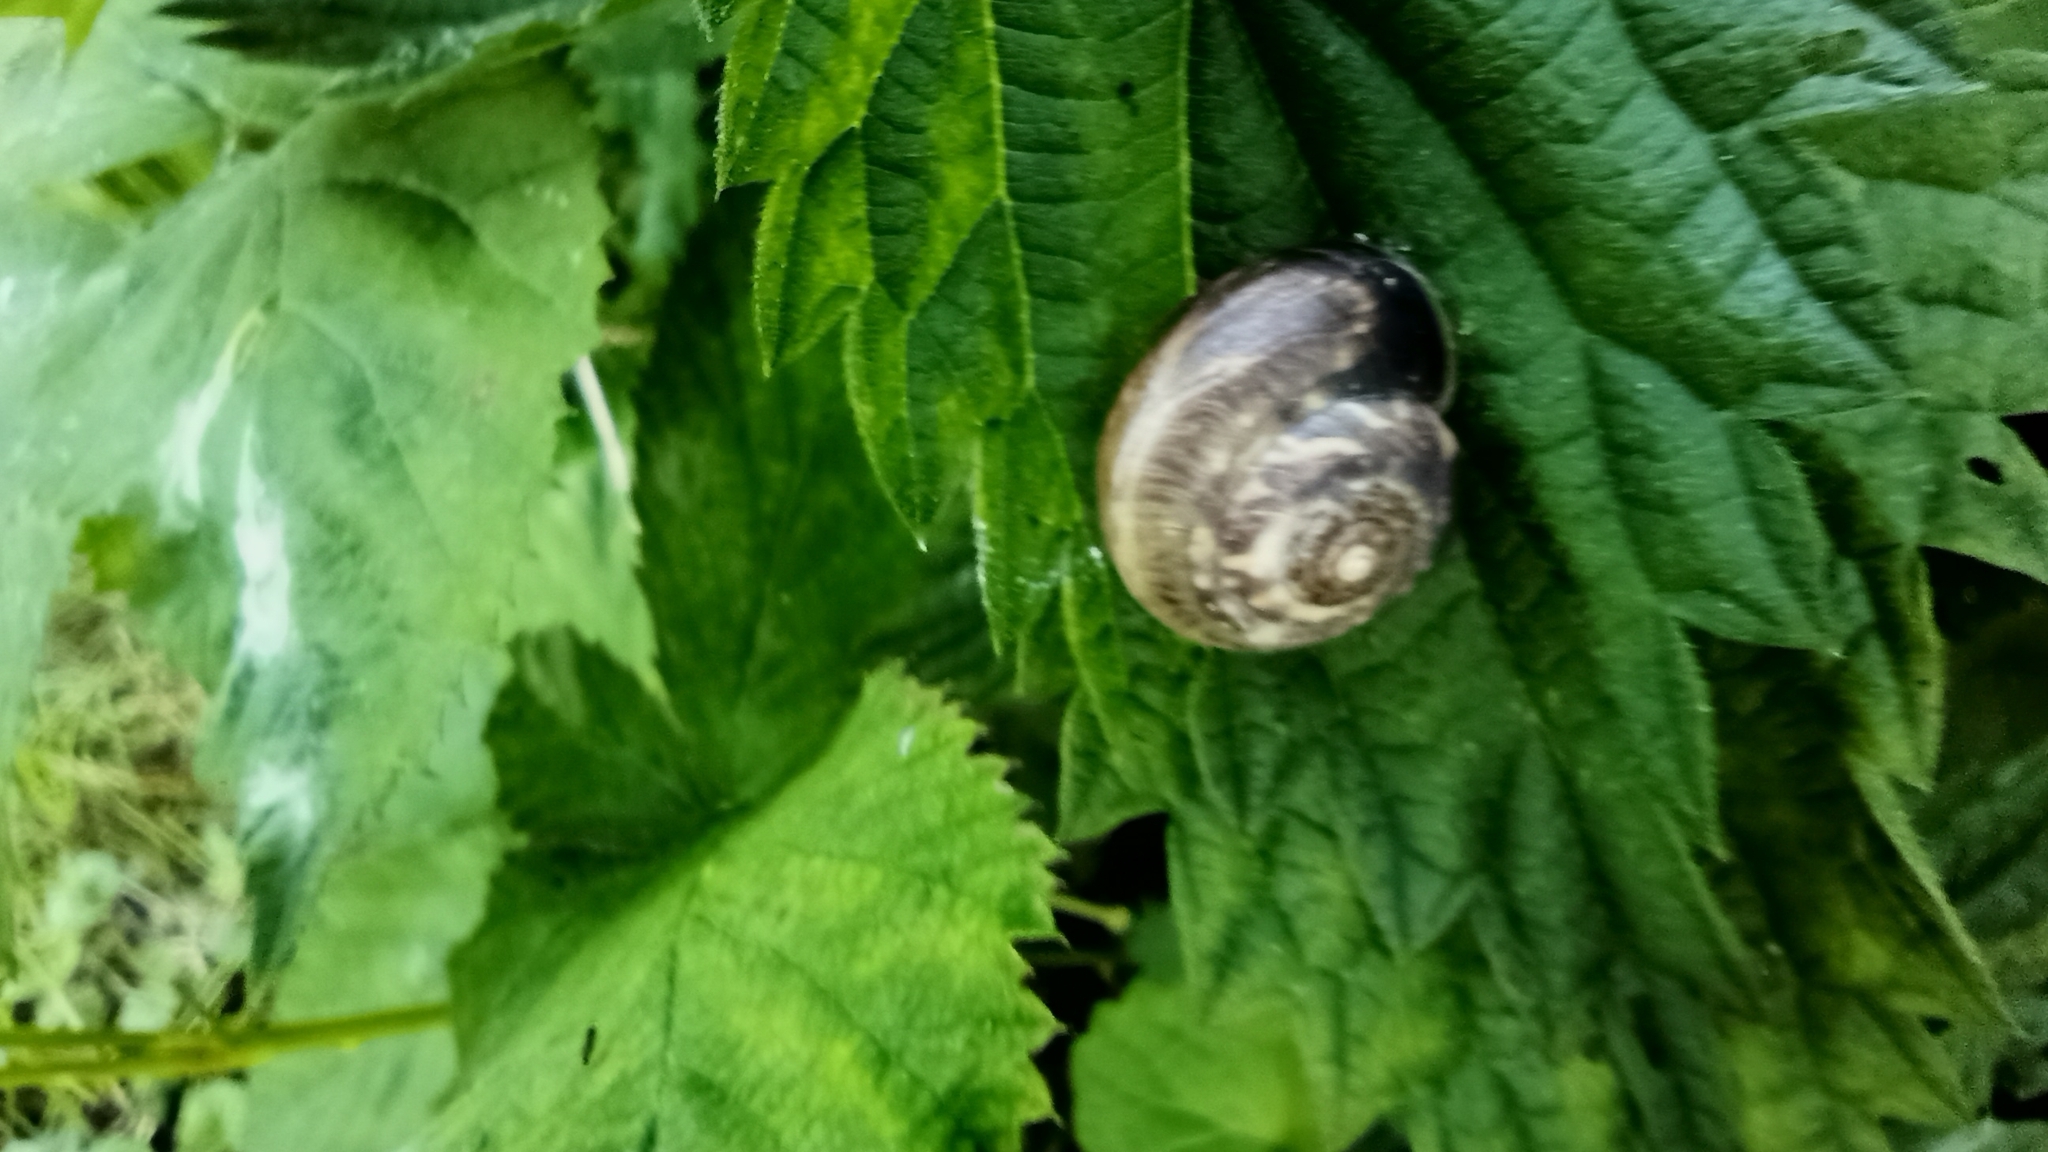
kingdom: Animalia
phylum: Mollusca
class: Gastropoda
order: Stylommatophora
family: Hygromiidae
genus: Monacha
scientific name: Monacha cantiana
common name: Kentish snail
